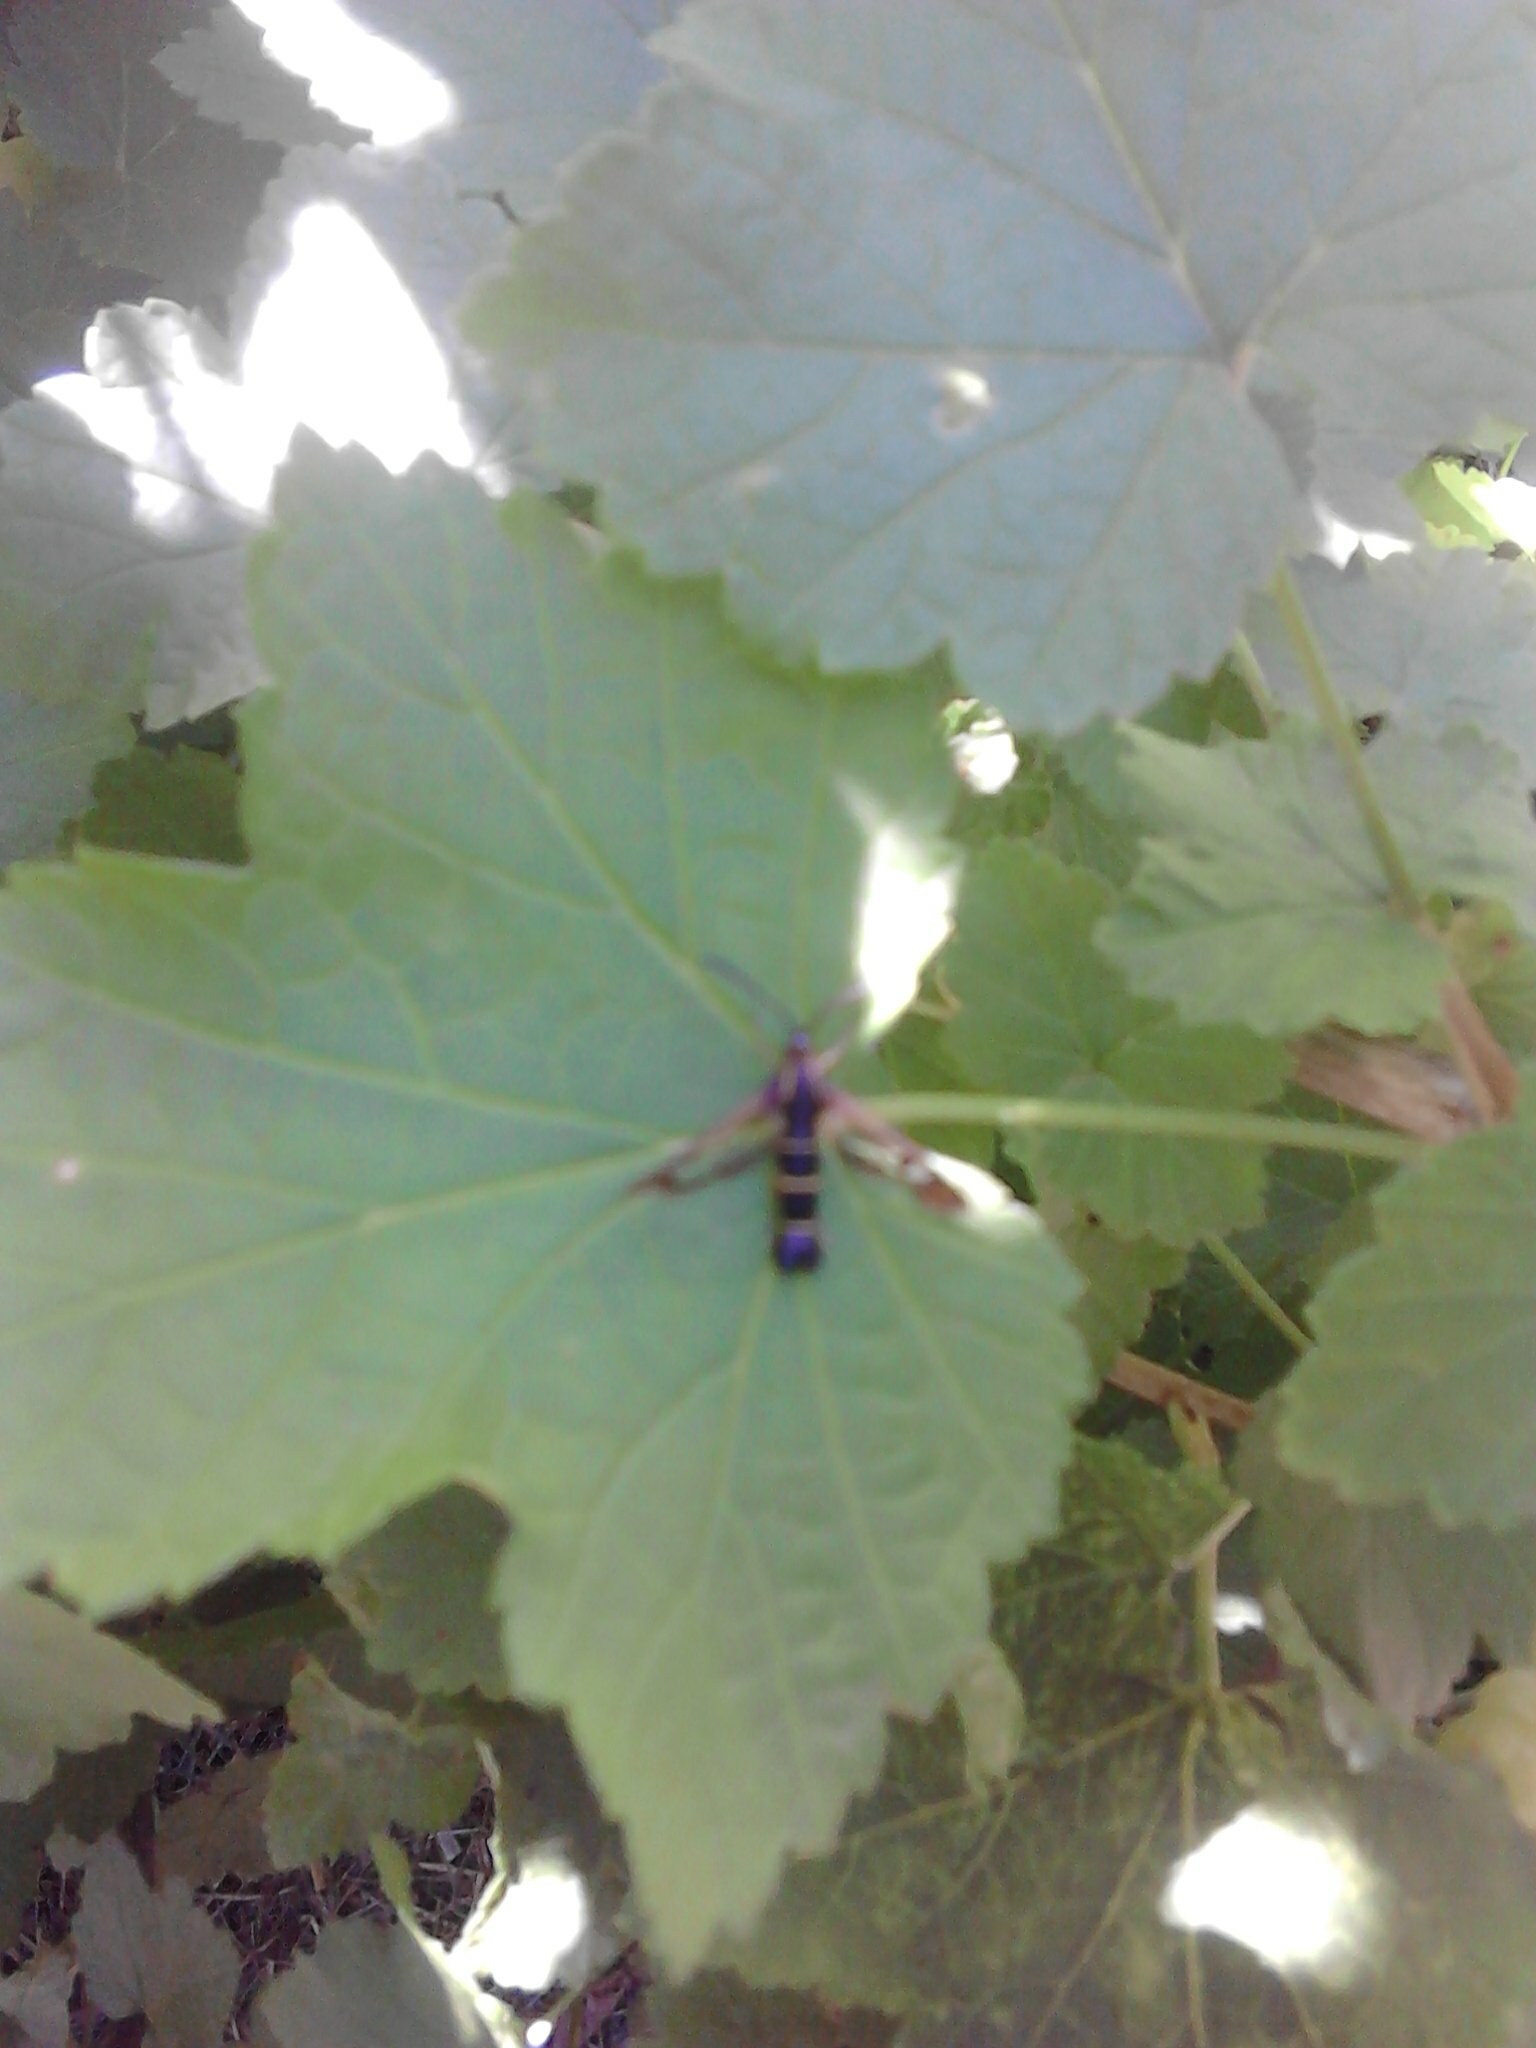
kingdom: Animalia
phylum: Arthropoda
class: Insecta
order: Lepidoptera
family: Sesiidae
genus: Synanthedon
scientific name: Synanthedon tipuliformis
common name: Currant clearwing
